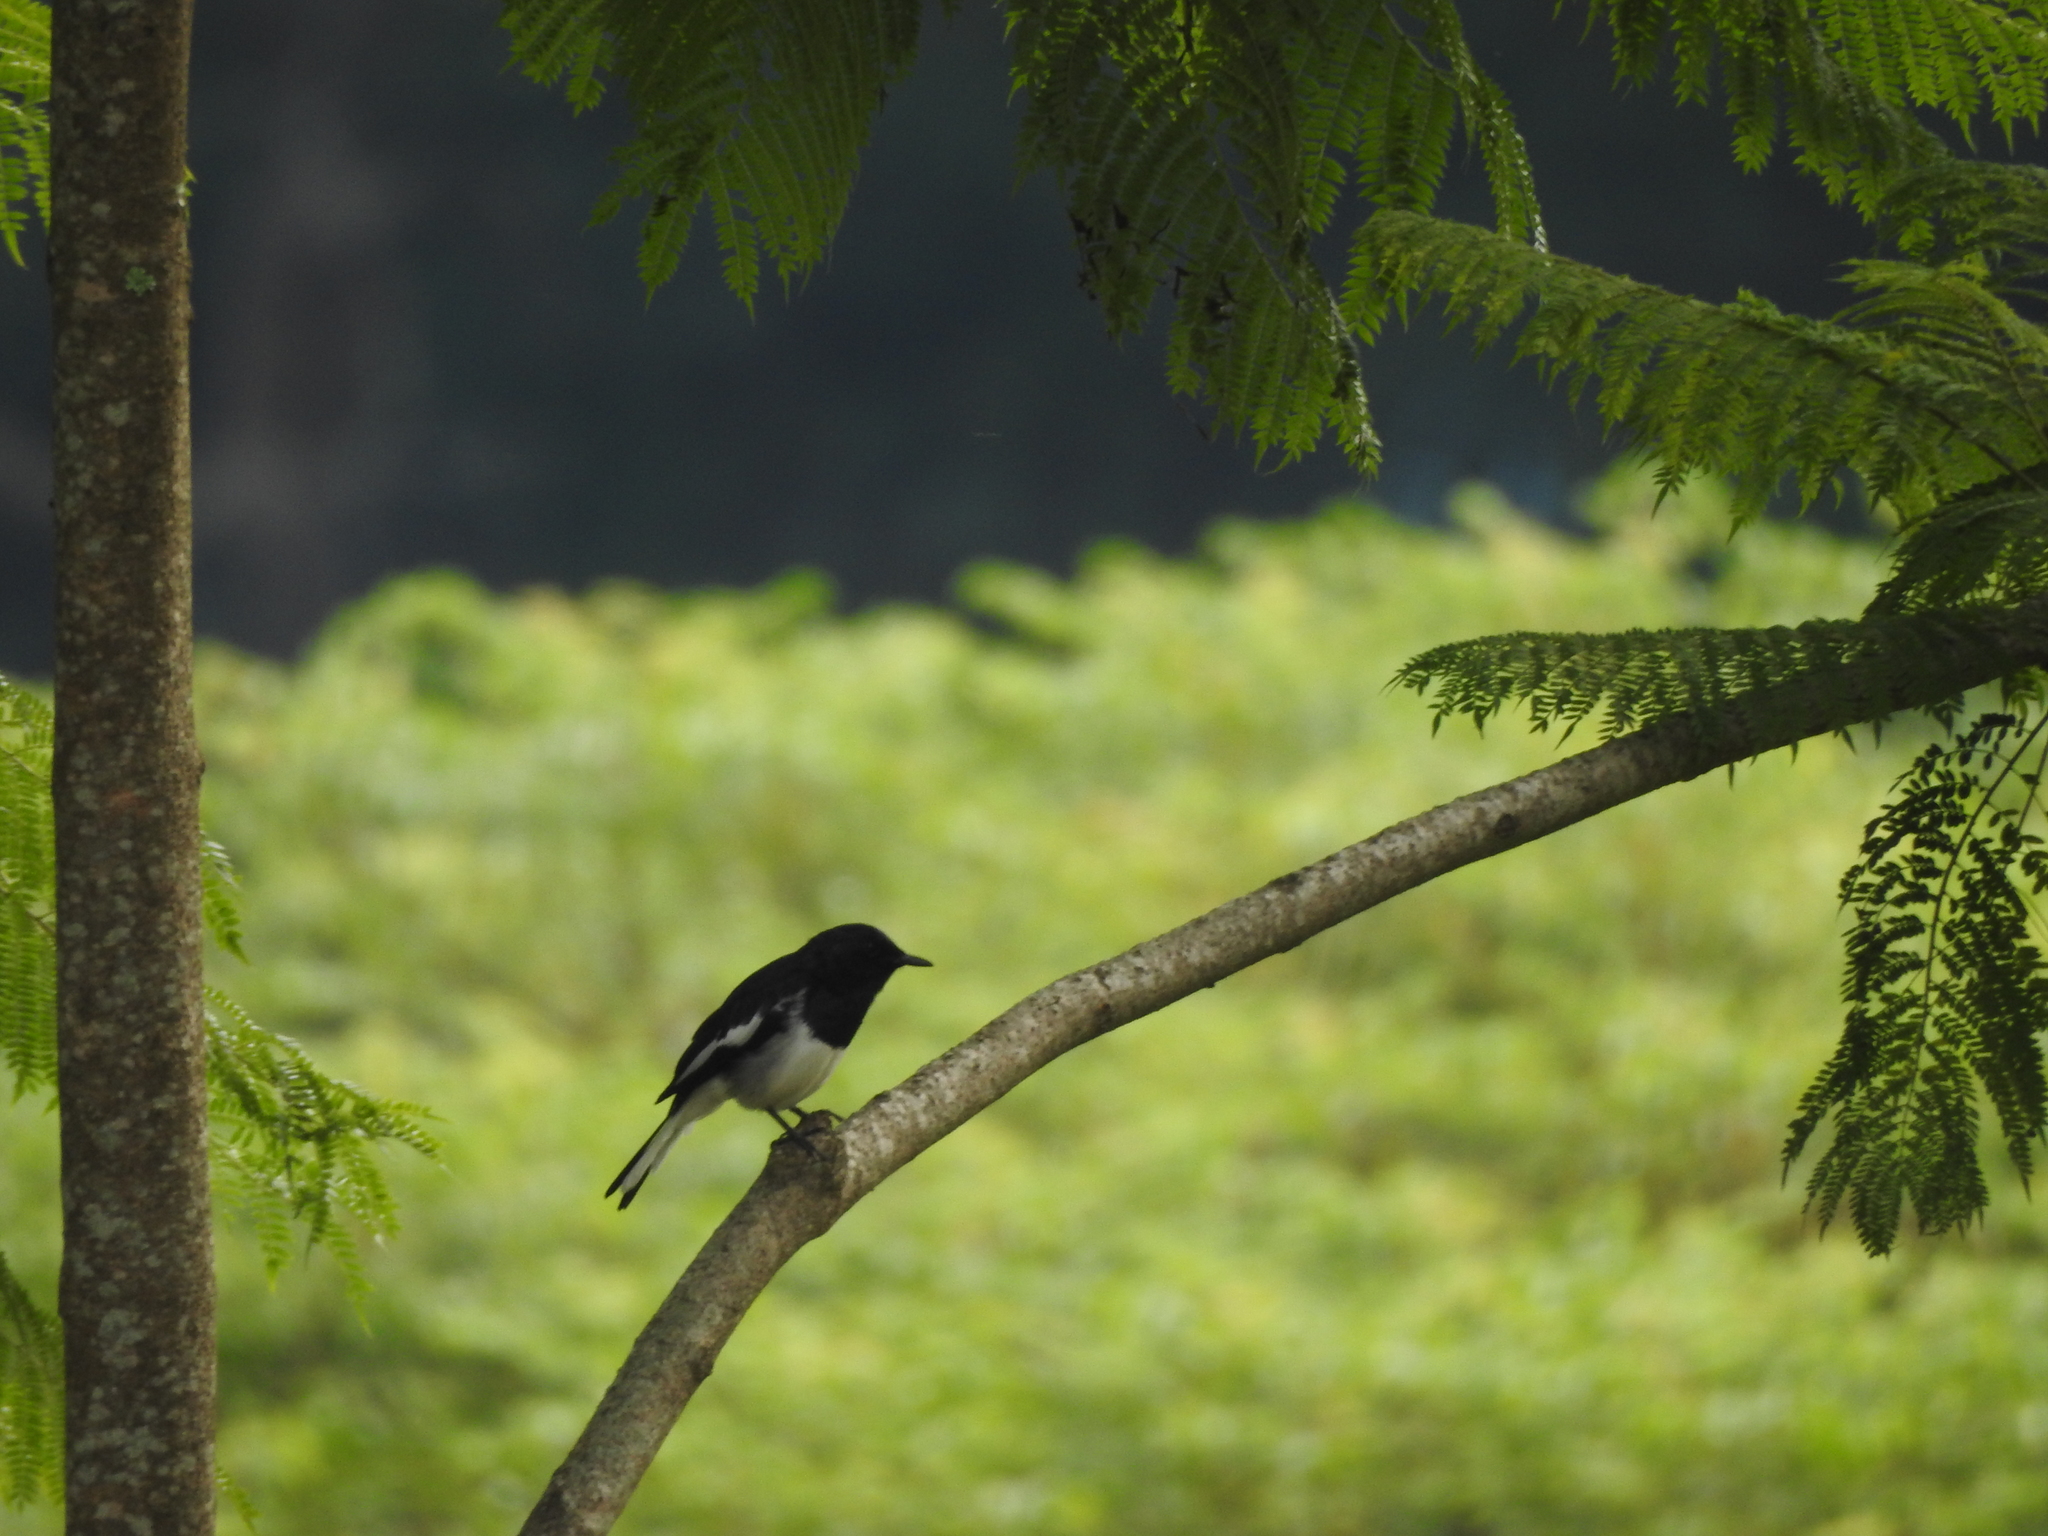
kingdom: Animalia
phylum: Chordata
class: Aves
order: Passeriformes
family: Muscicapidae
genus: Copsychus
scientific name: Copsychus saularis
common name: Oriental magpie-robin
